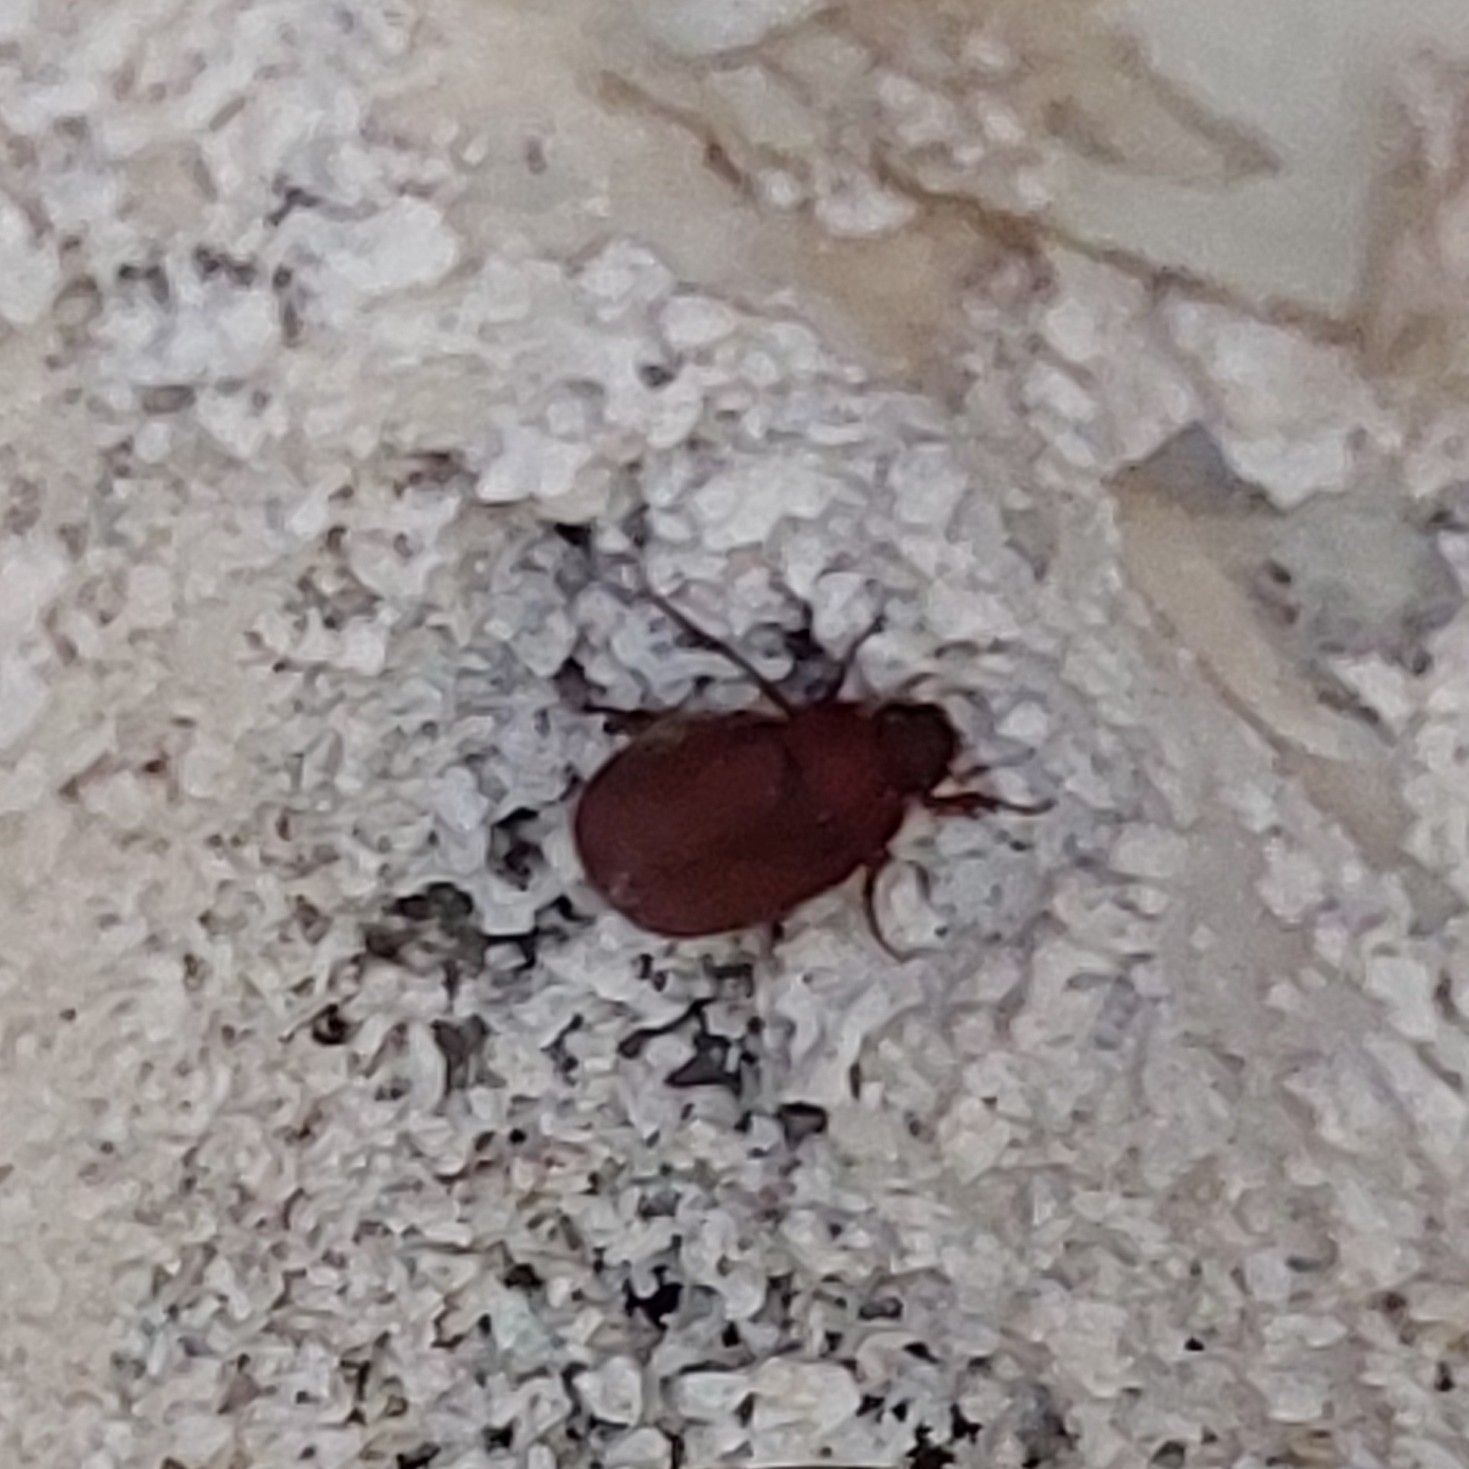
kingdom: Animalia
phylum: Arthropoda
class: Insecta
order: Coleoptera
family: Scarabaeidae
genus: Maladera
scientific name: Maladera insanabilis
